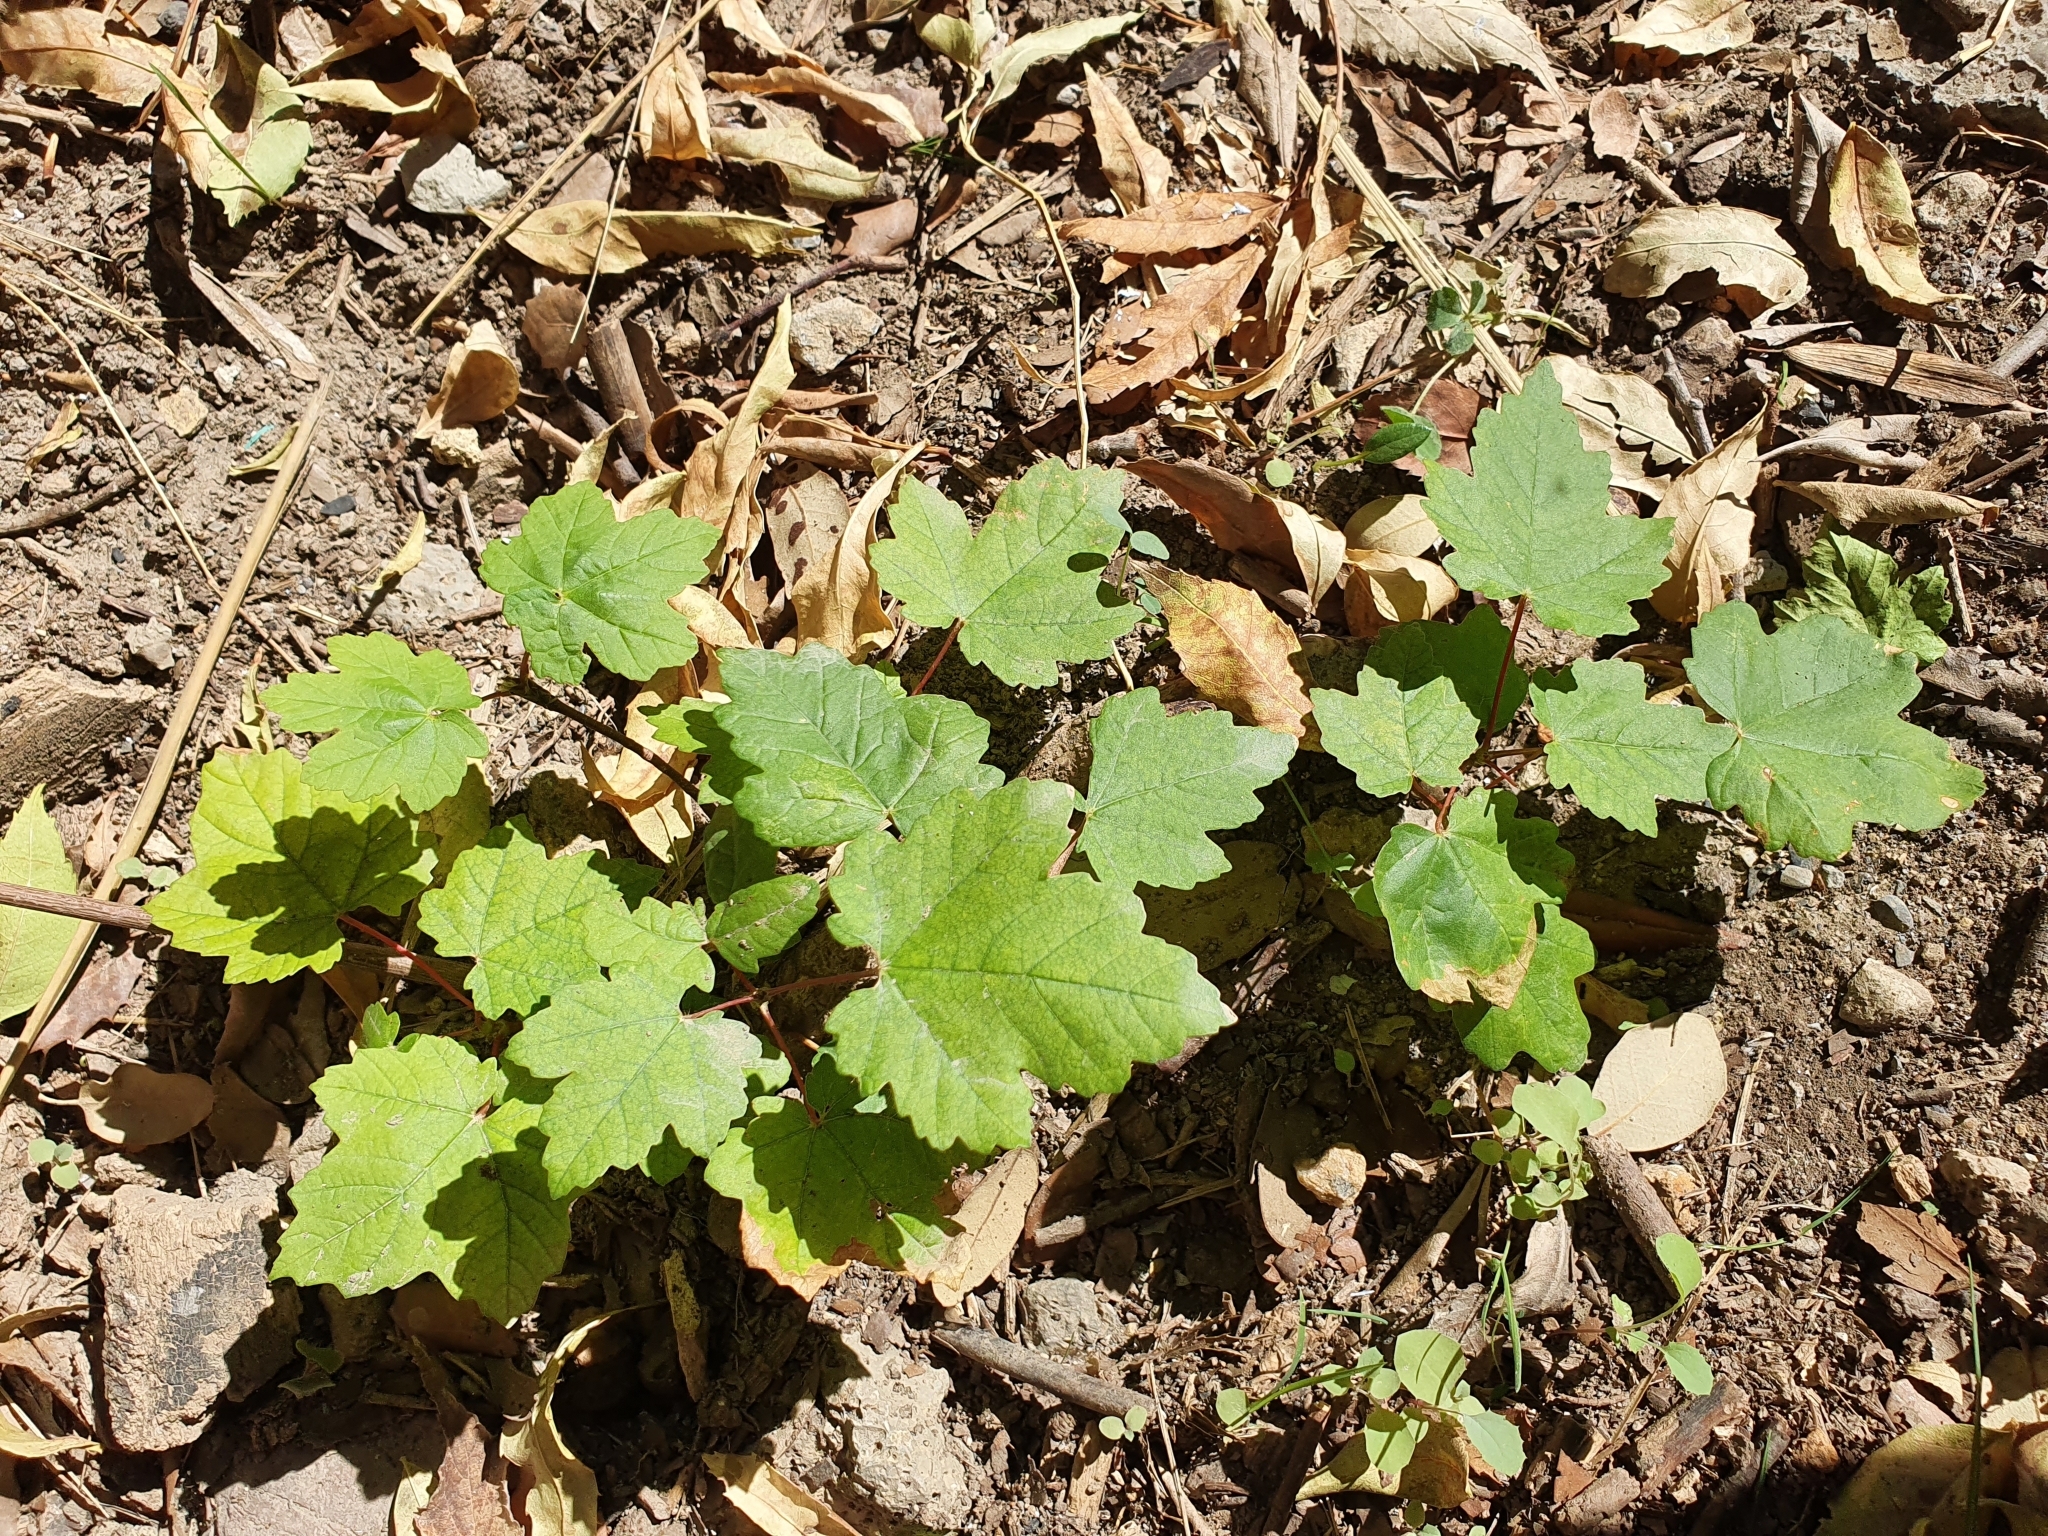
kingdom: Plantae
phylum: Tracheophyta
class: Magnoliopsida
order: Sapindales
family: Sapindaceae
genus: Acer
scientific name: Acer opalus
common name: Italian maple
